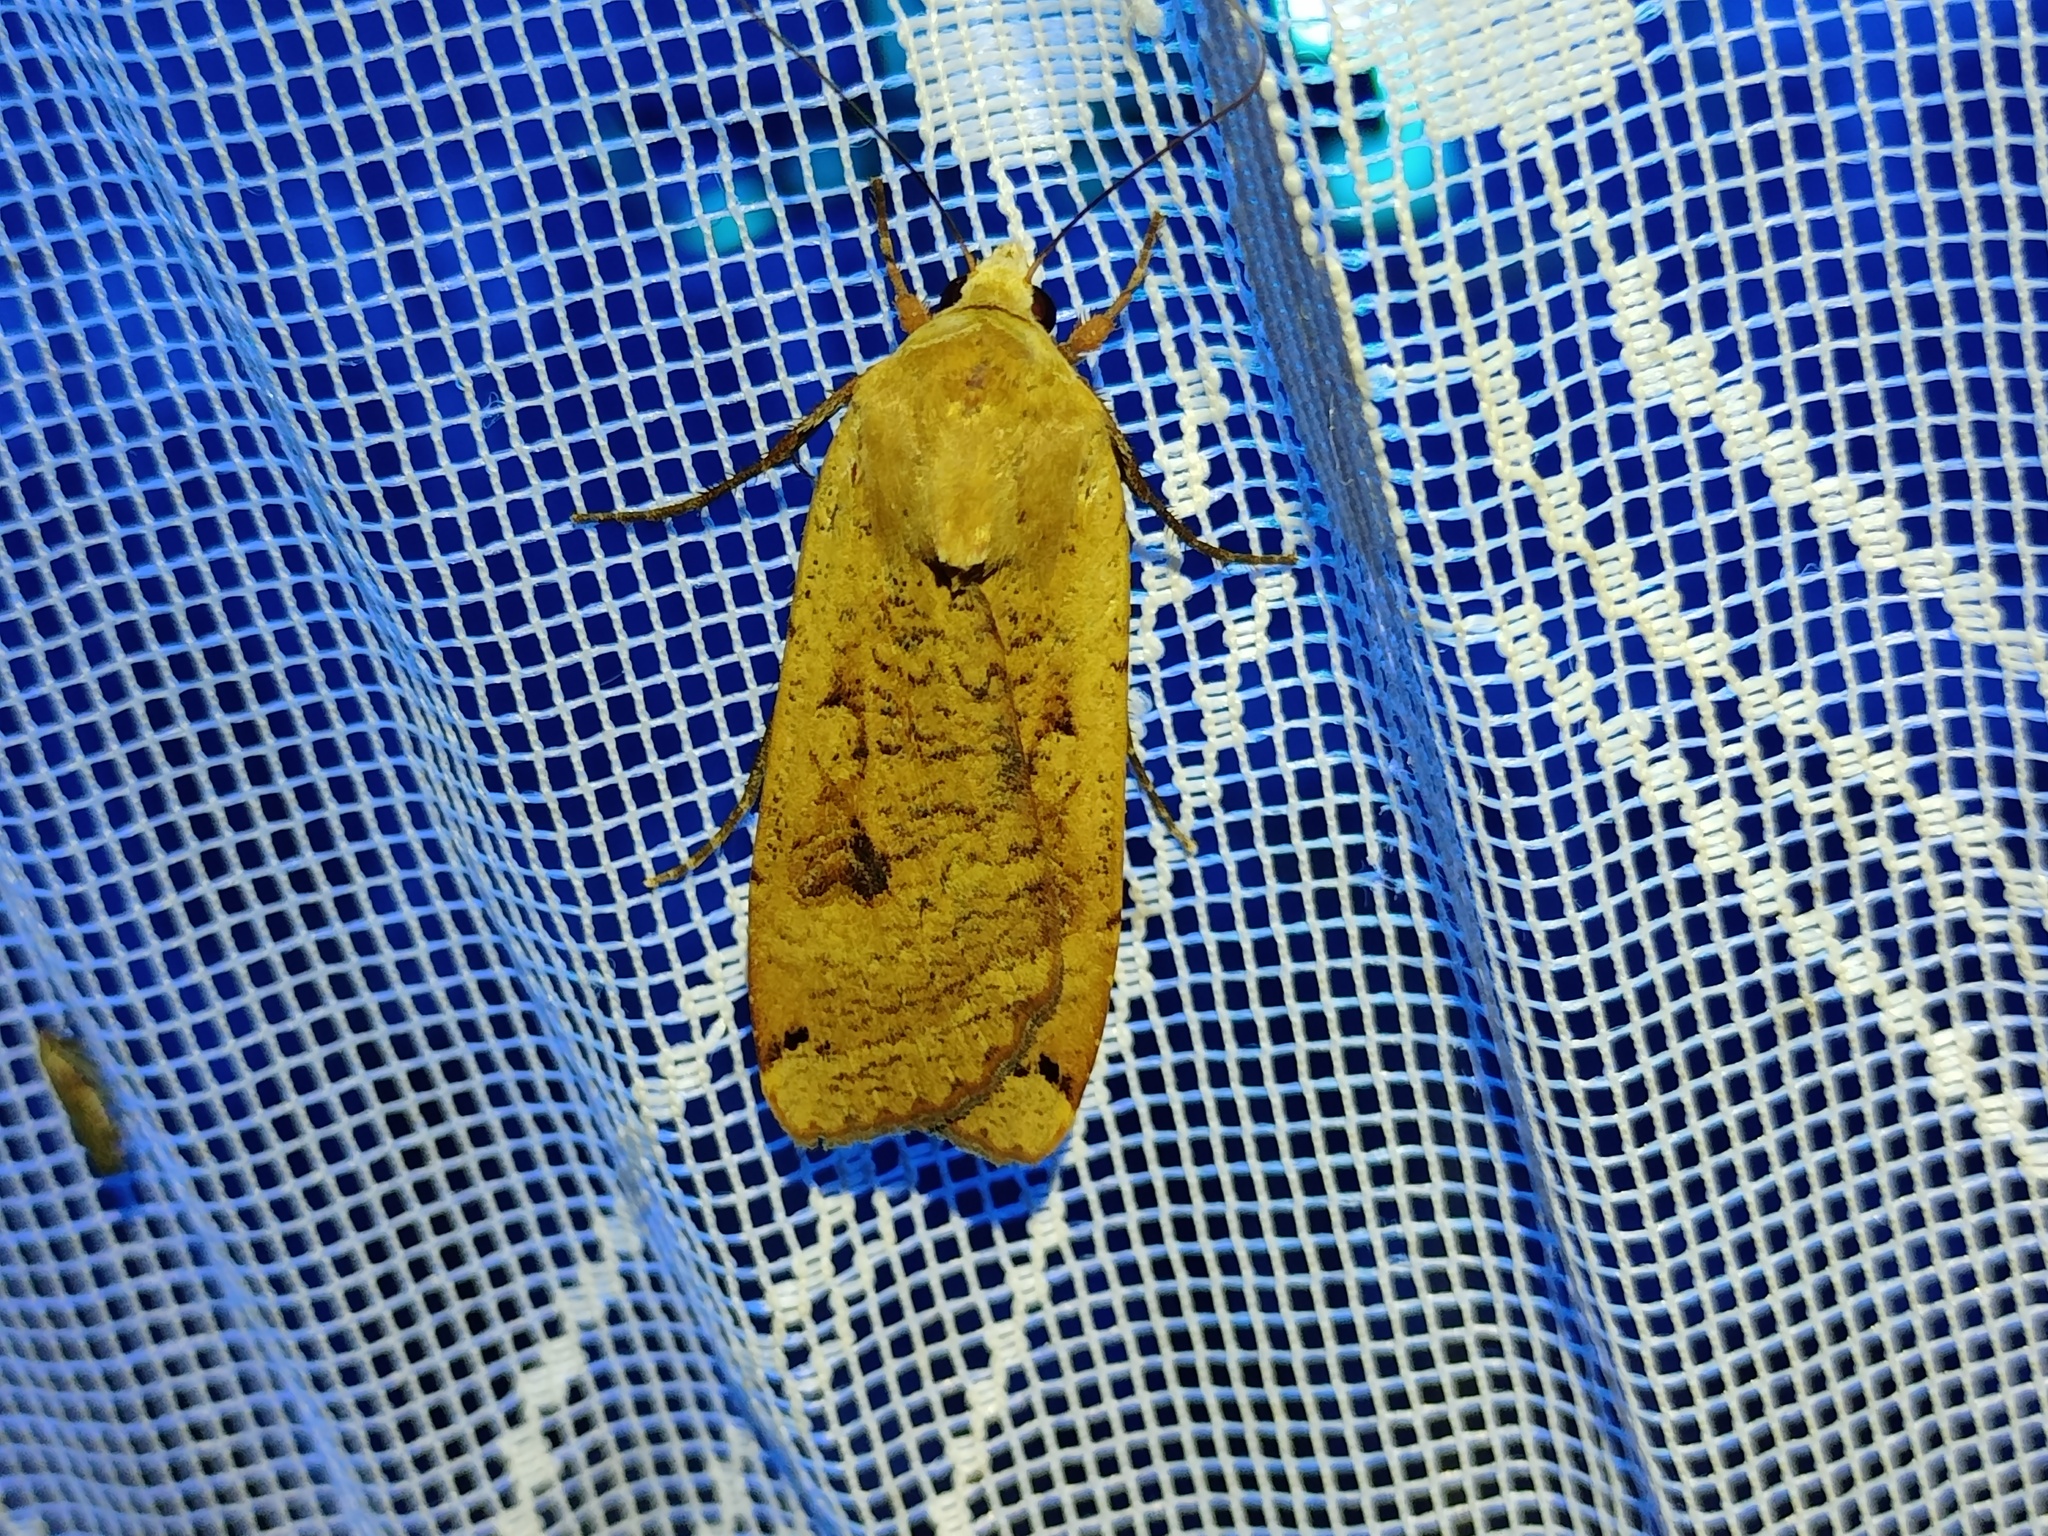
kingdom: Animalia
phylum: Arthropoda
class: Insecta
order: Lepidoptera
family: Noctuidae
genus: Noctua
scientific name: Noctua pronuba
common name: Large yellow underwing
